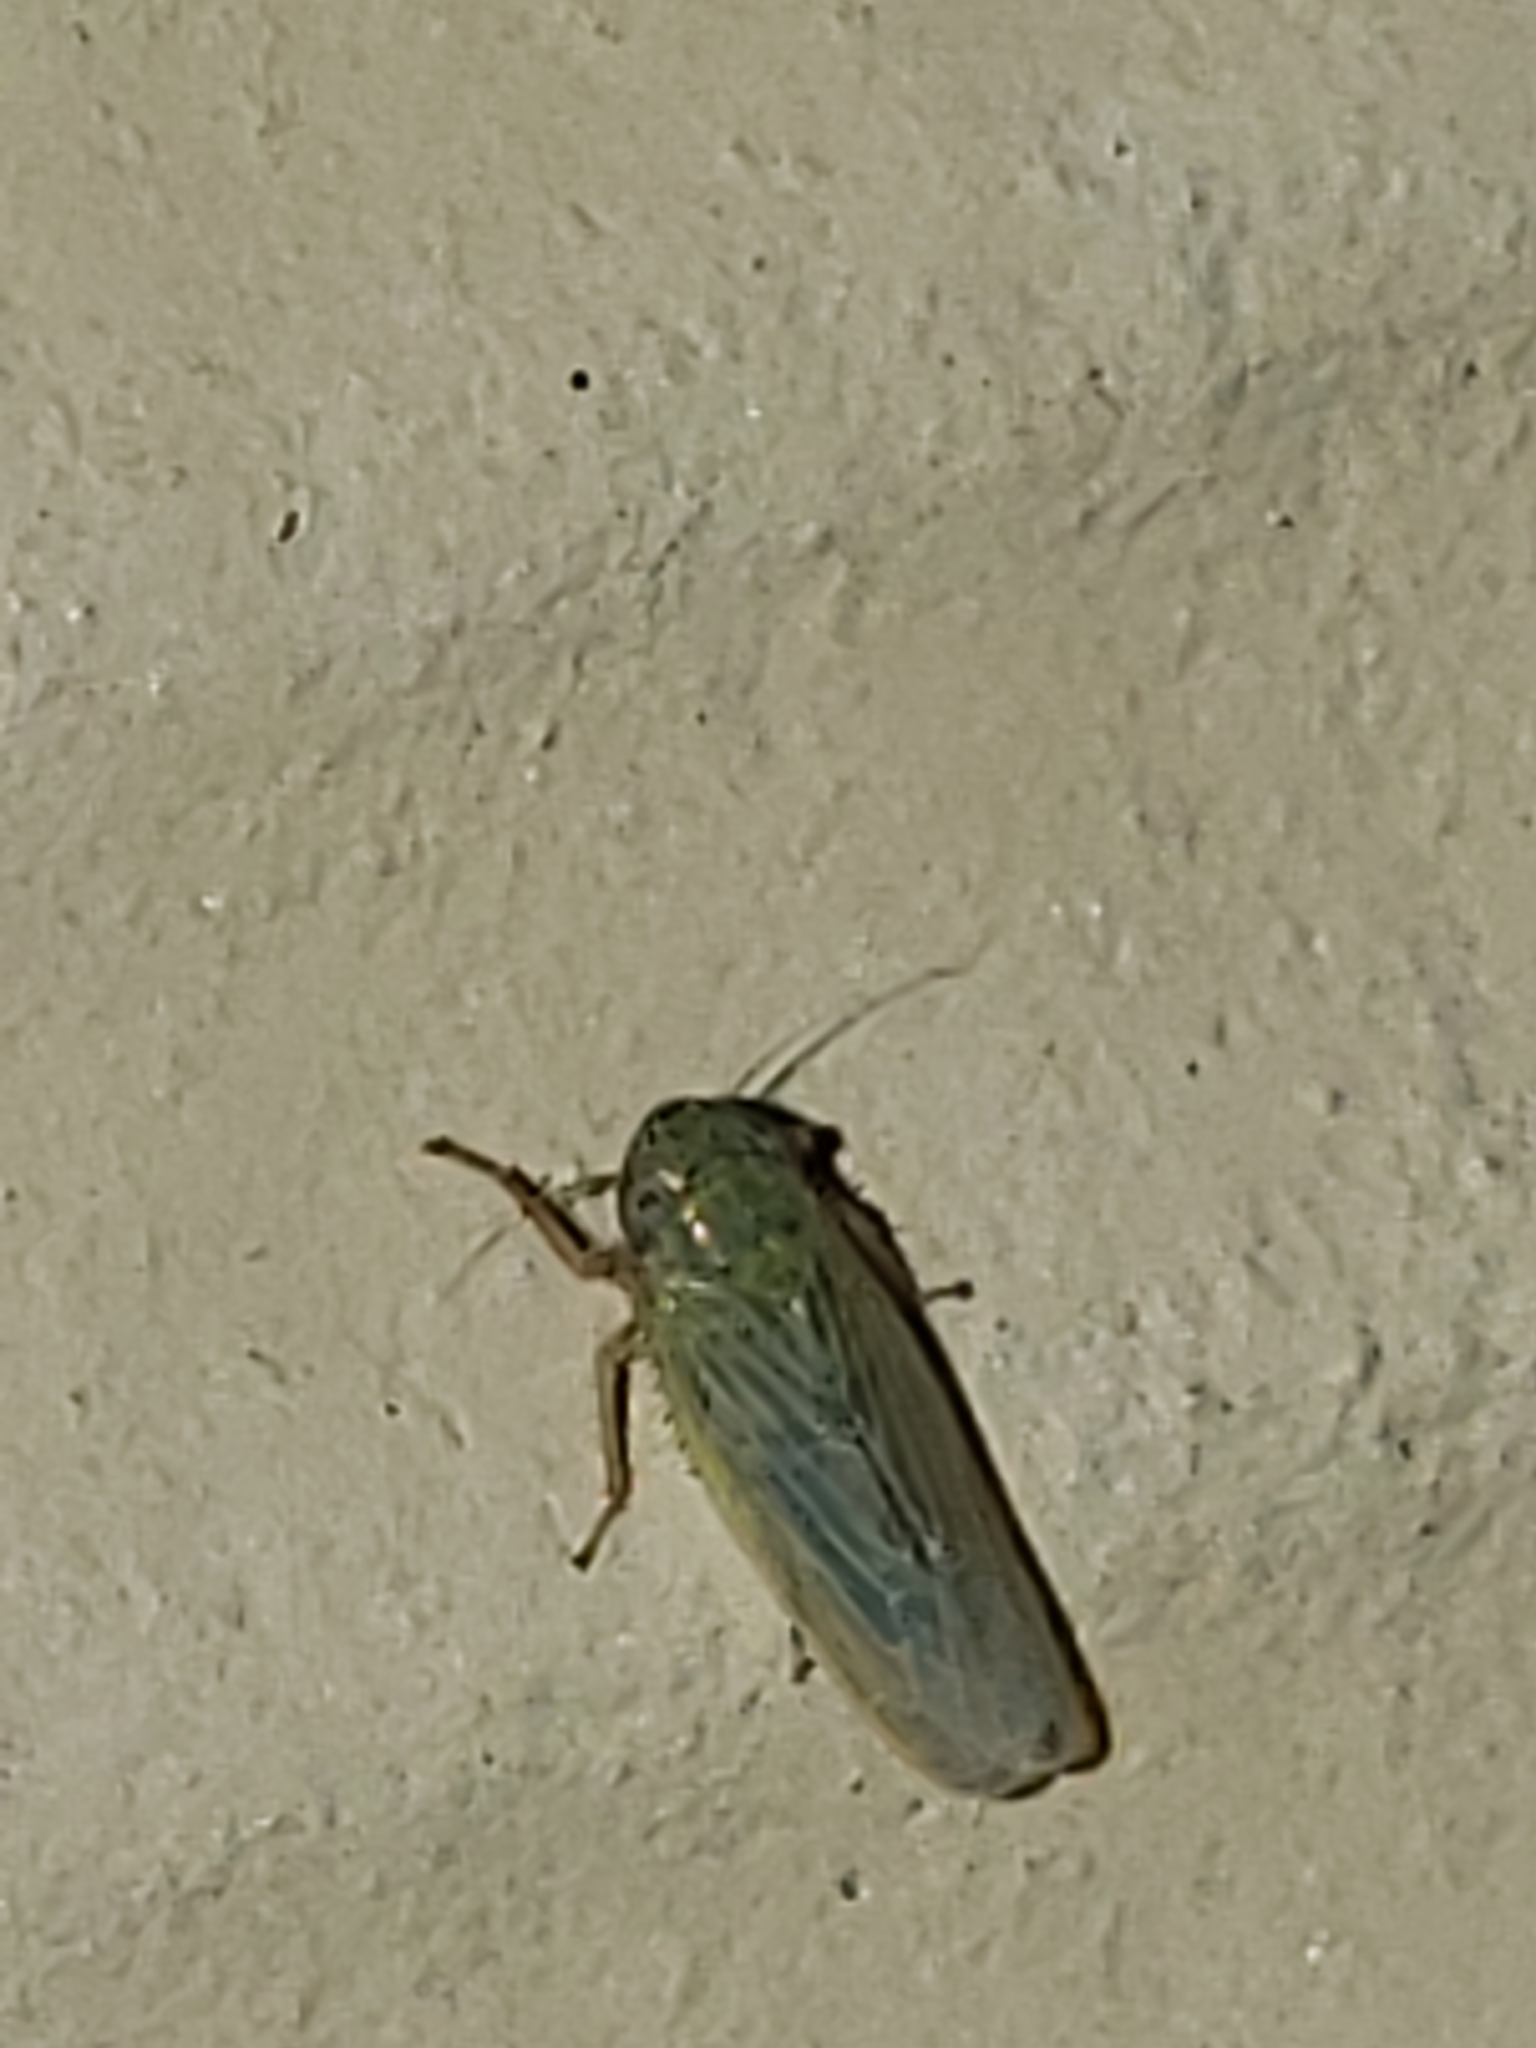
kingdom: Animalia
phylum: Arthropoda
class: Insecta
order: Hemiptera
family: Cicadellidae
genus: Graminella
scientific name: Graminella nigrifrons
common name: Blackfaced leafhopper
